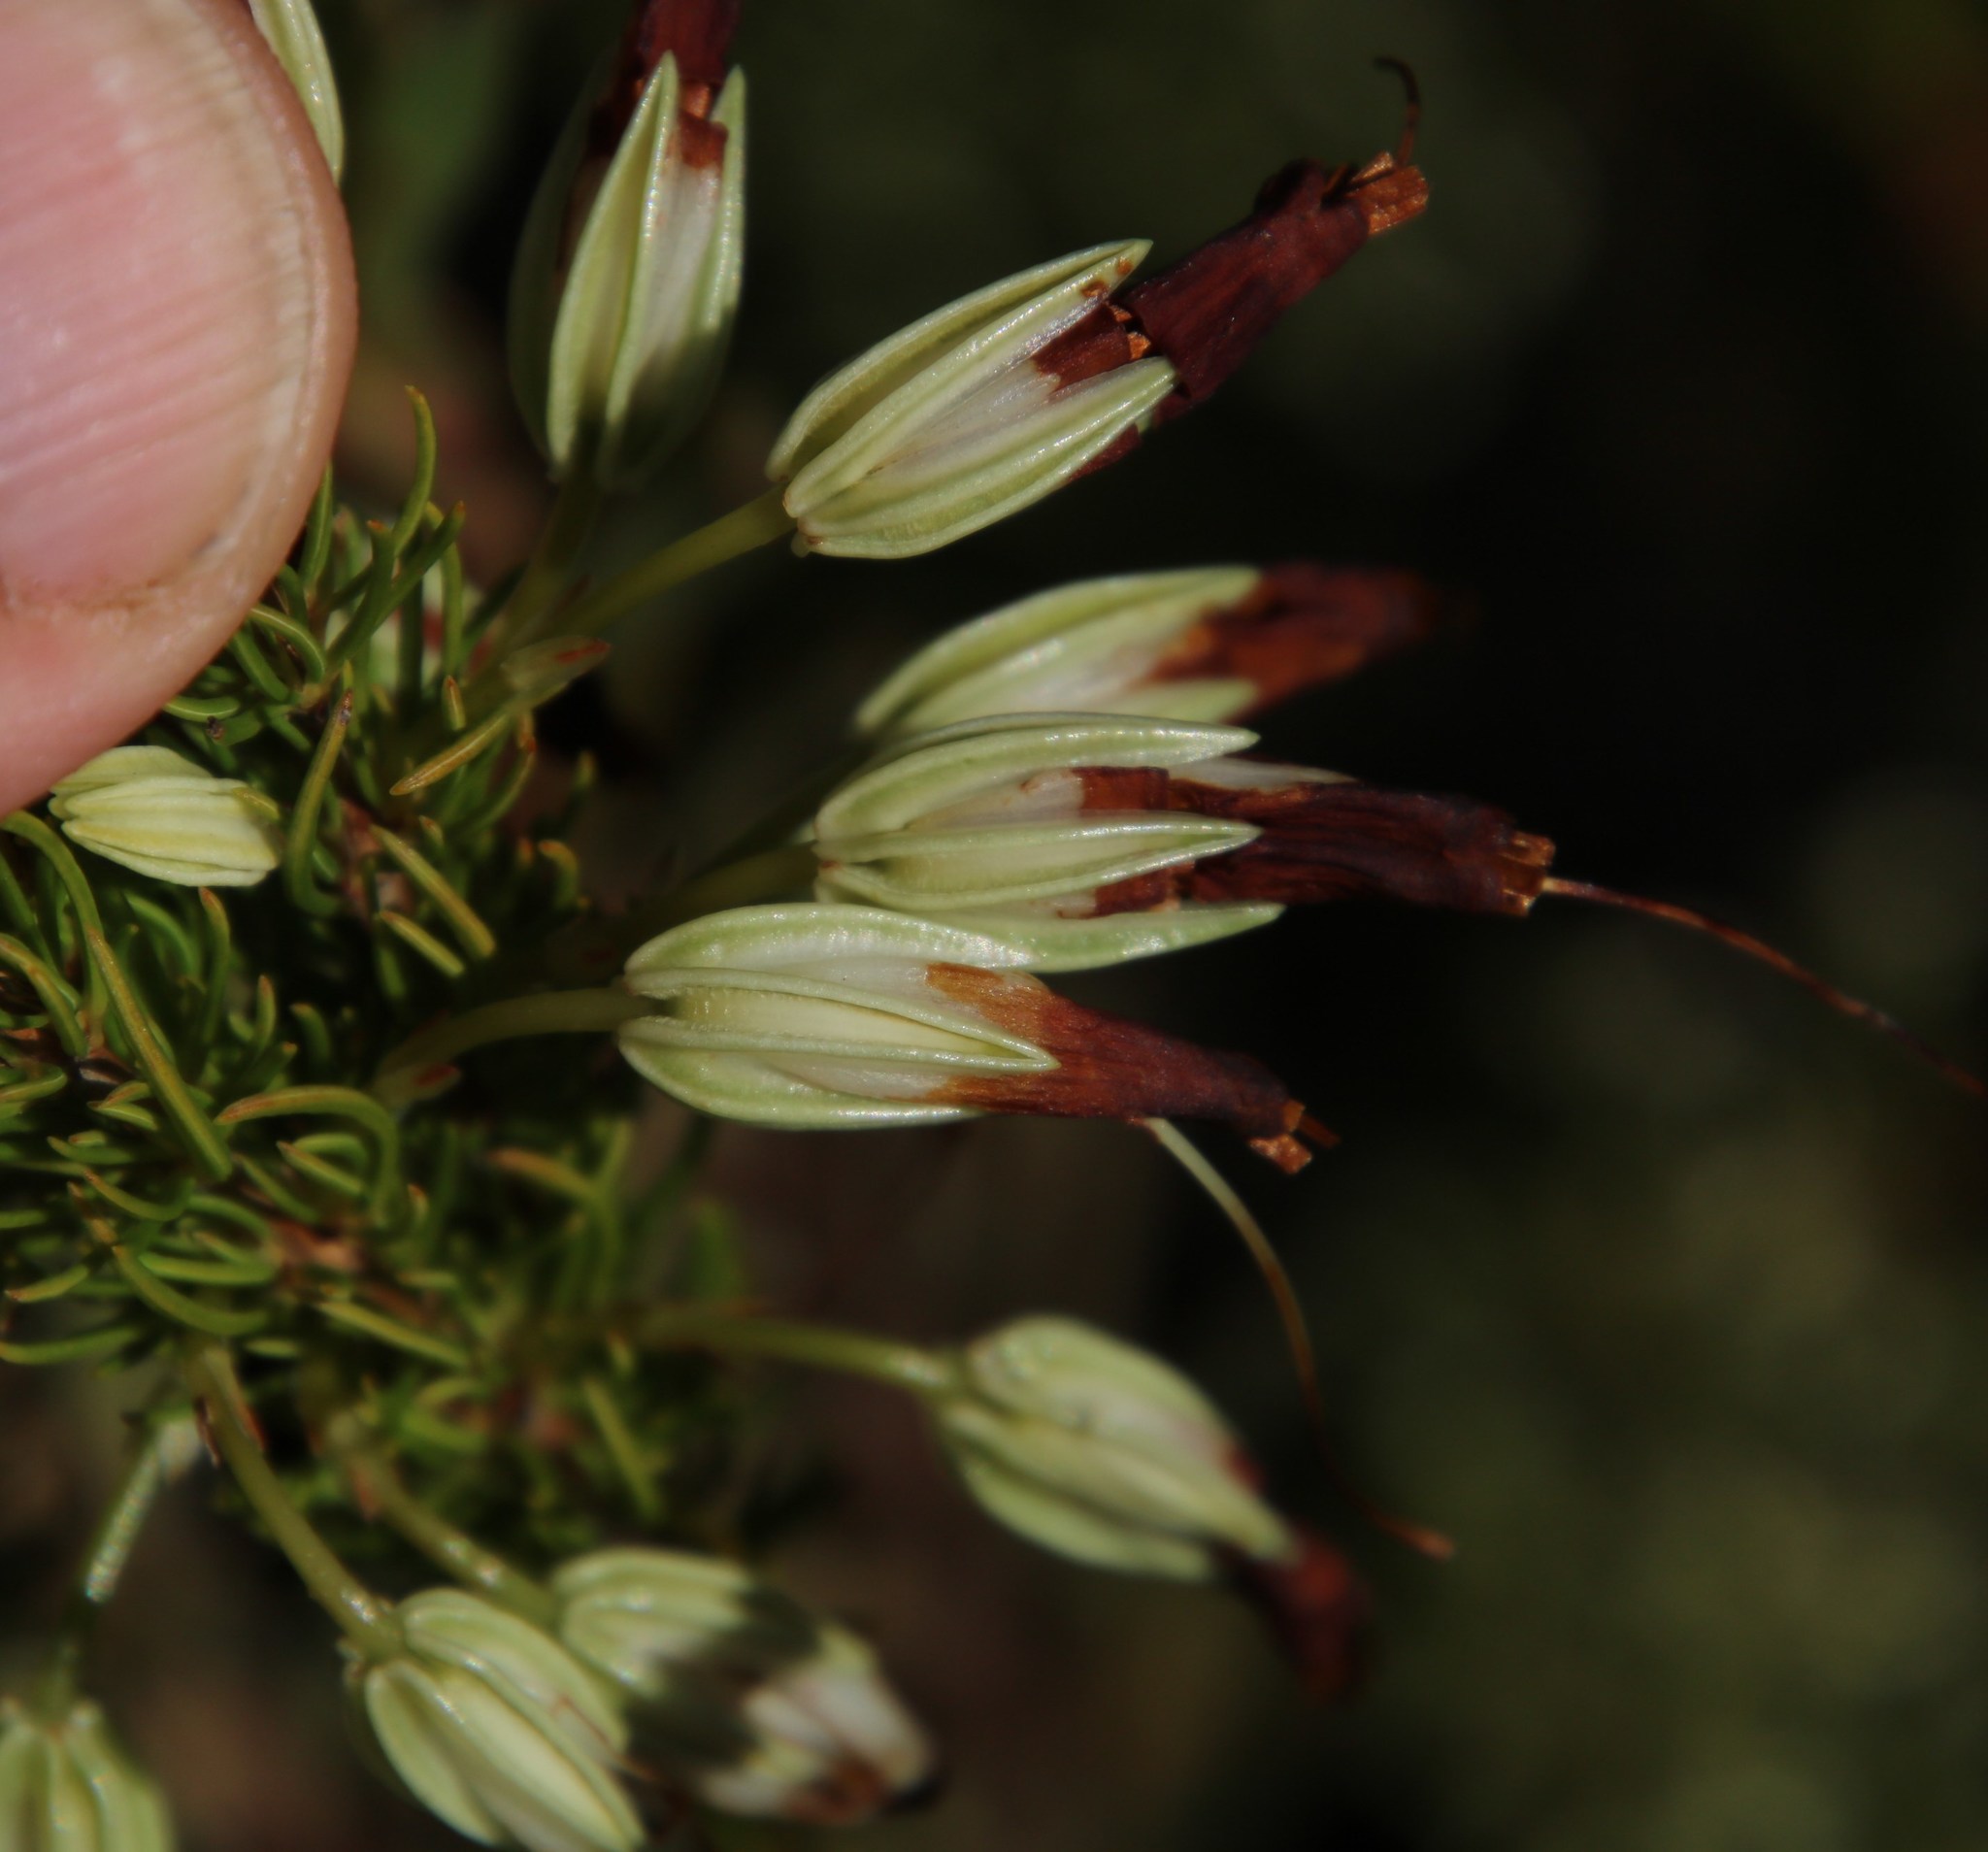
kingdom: Plantae
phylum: Tracheophyta
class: Magnoliopsida
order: Ericales
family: Ericaceae
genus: Erica
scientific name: Erica plukenetii
